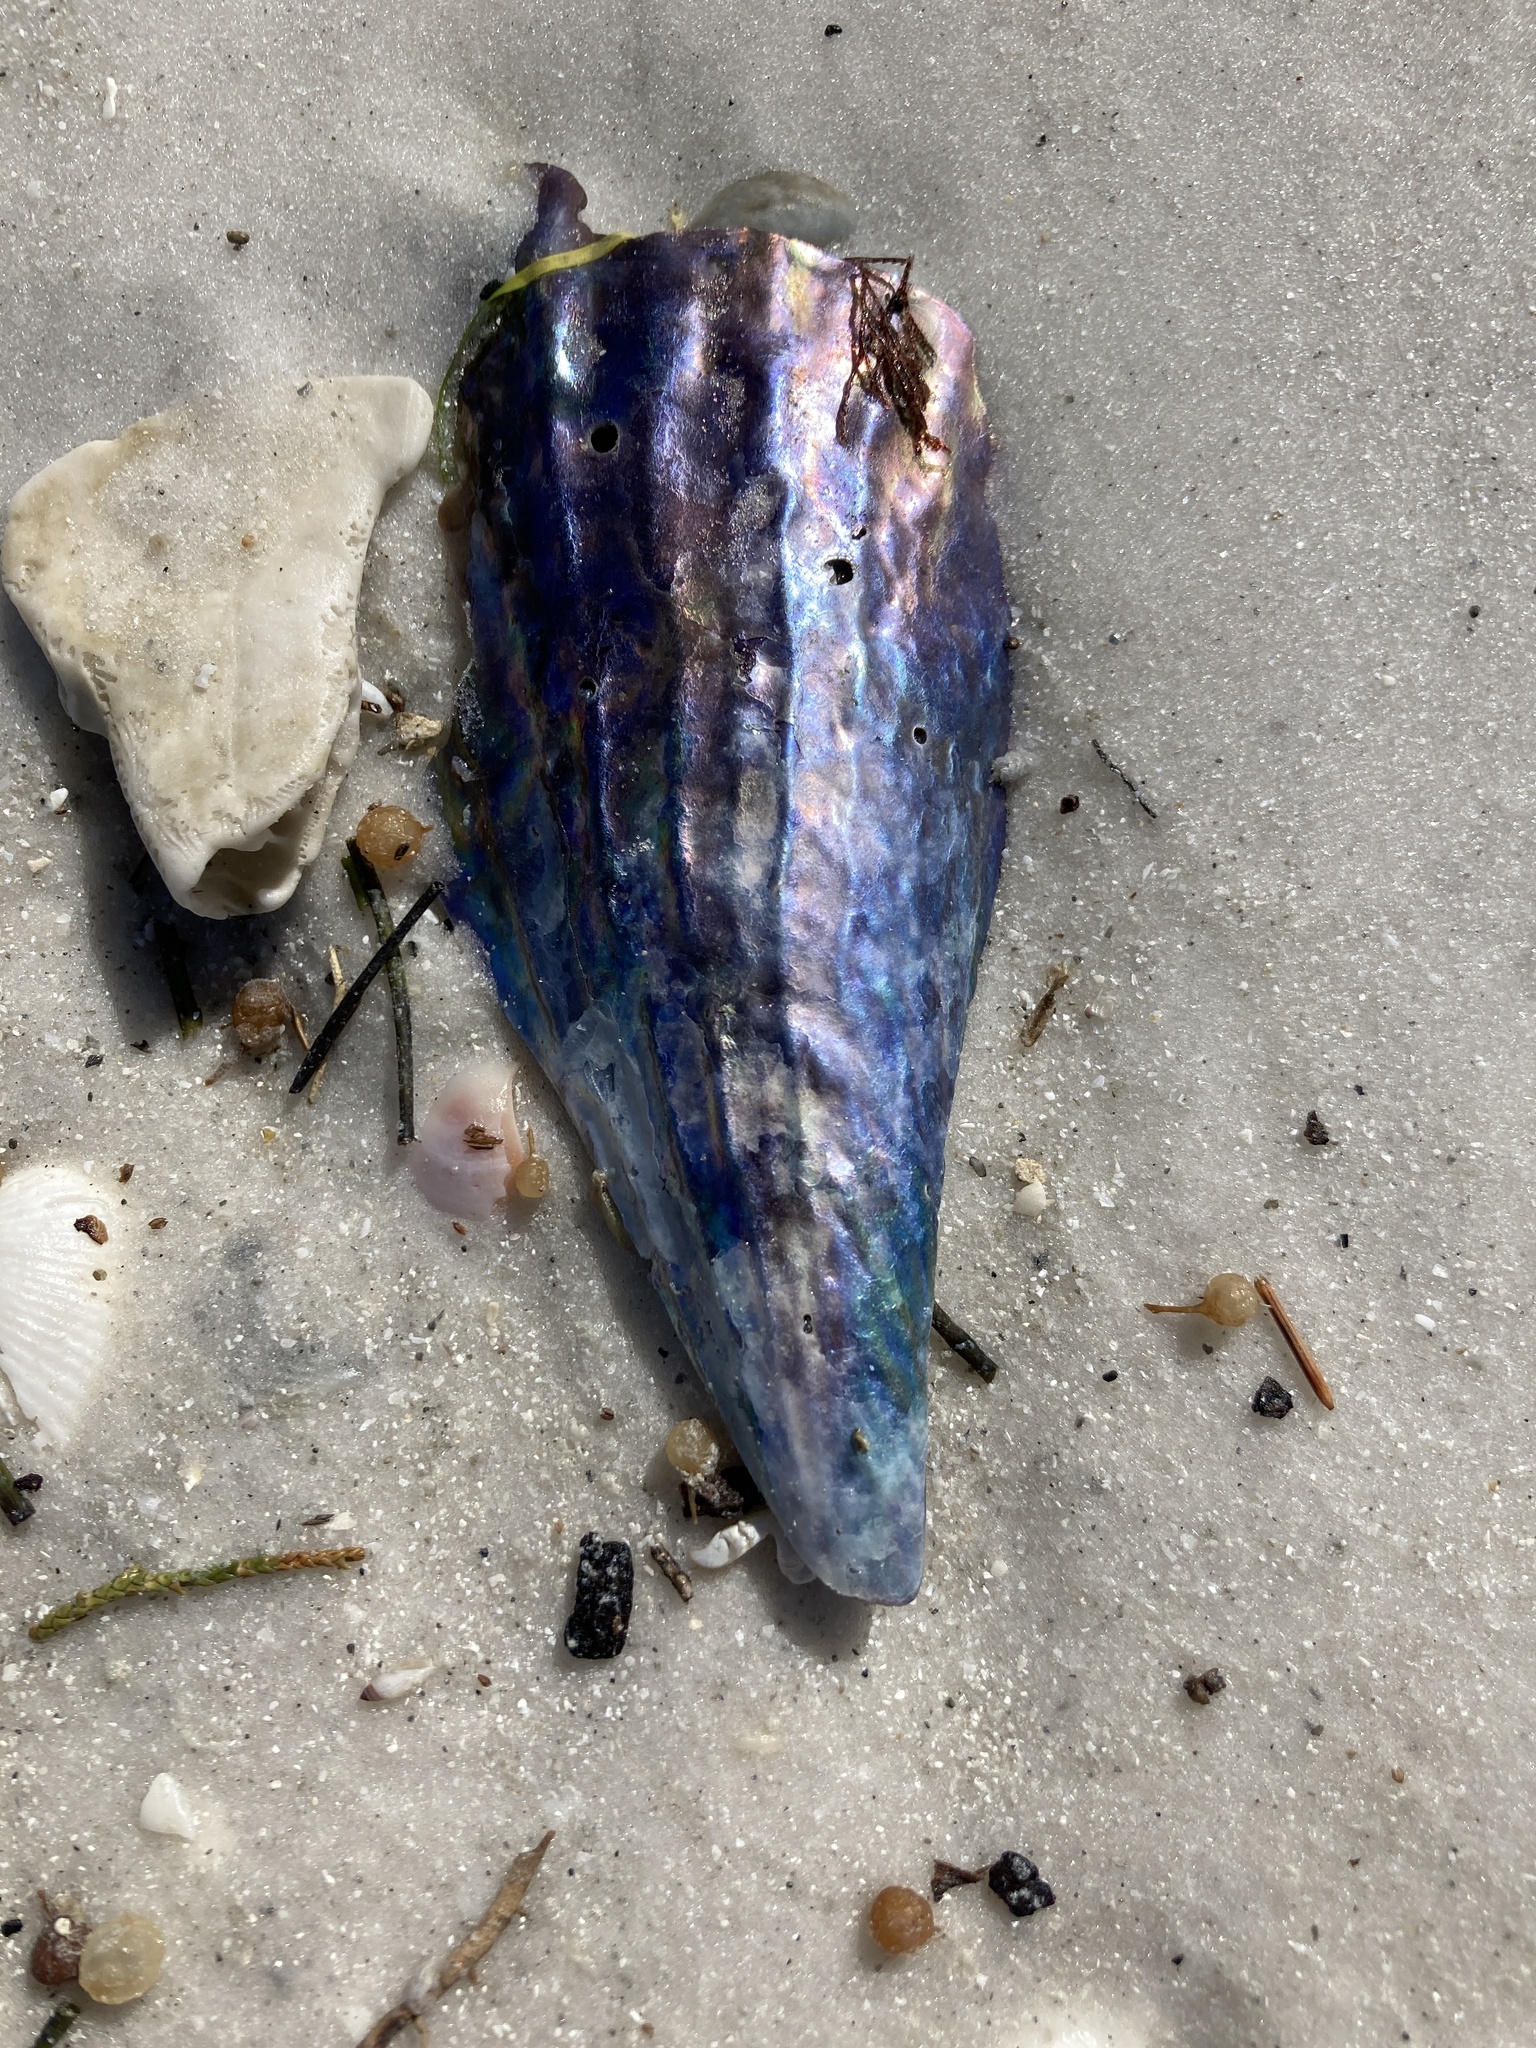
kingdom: Animalia
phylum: Mollusca
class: Bivalvia
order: Ostreida
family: Pinnidae
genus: Atrina
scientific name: Atrina rigida
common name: Stiff penshell
